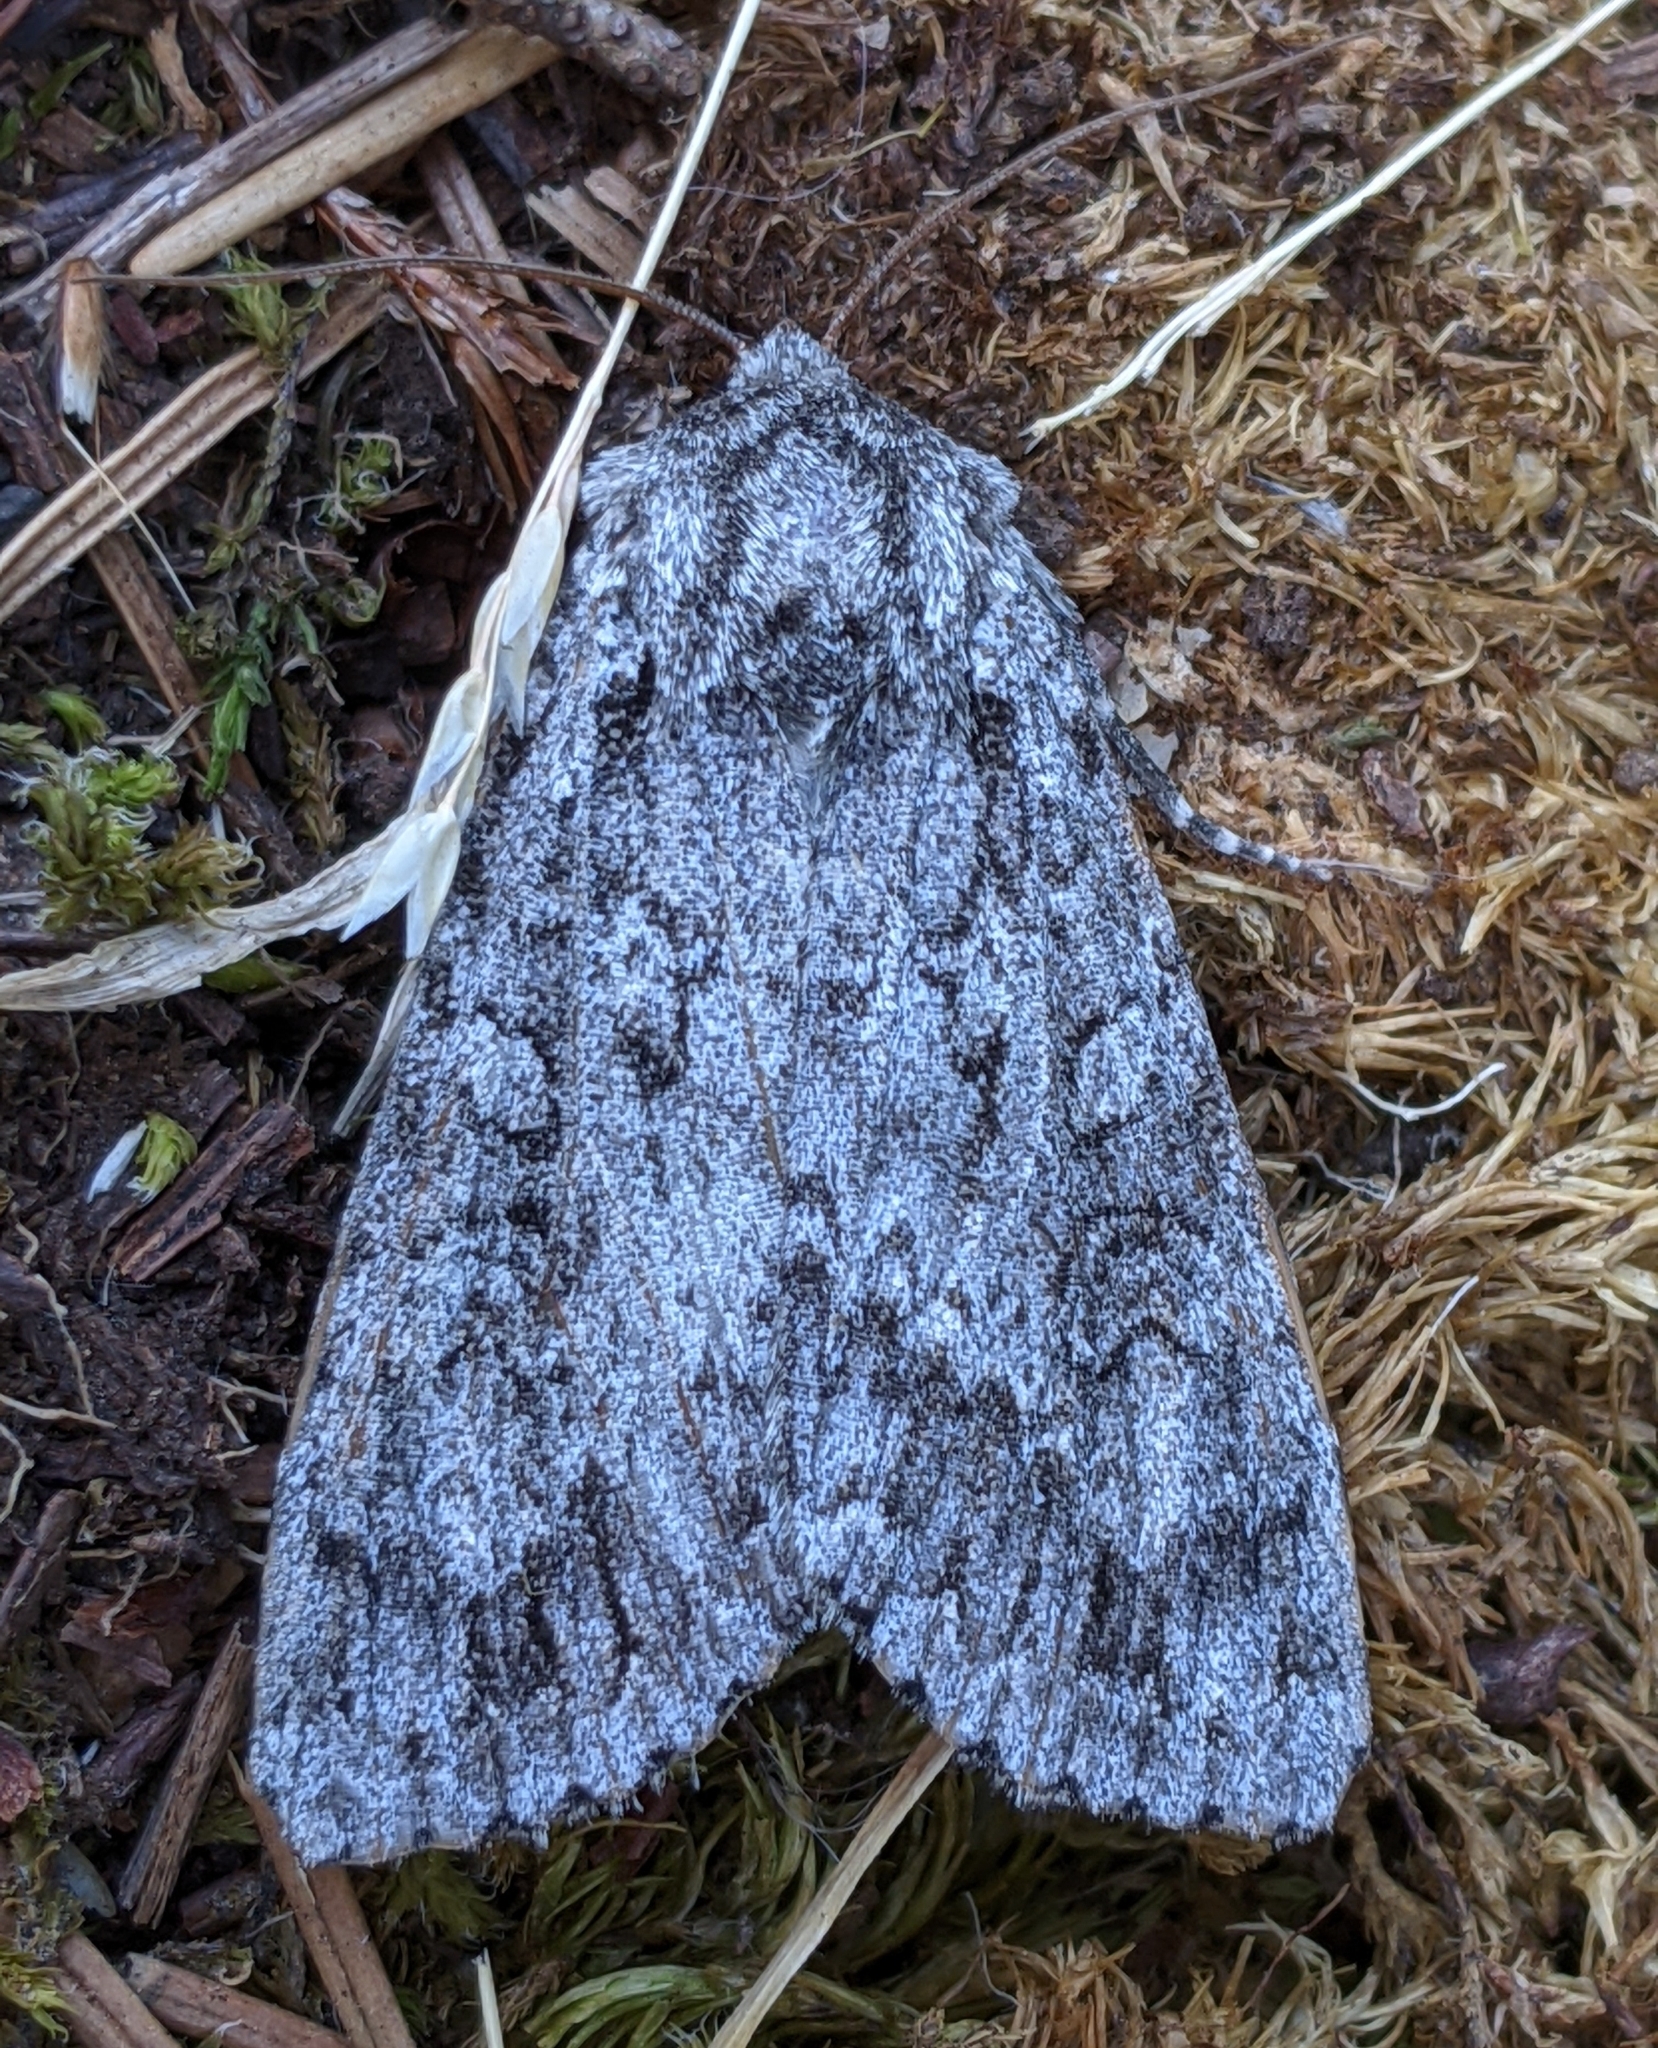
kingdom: Animalia
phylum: Arthropoda
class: Insecta
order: Lepidoptera
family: Noctuidae
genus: Eurois
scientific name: Eurois occulta
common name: Great brocade
